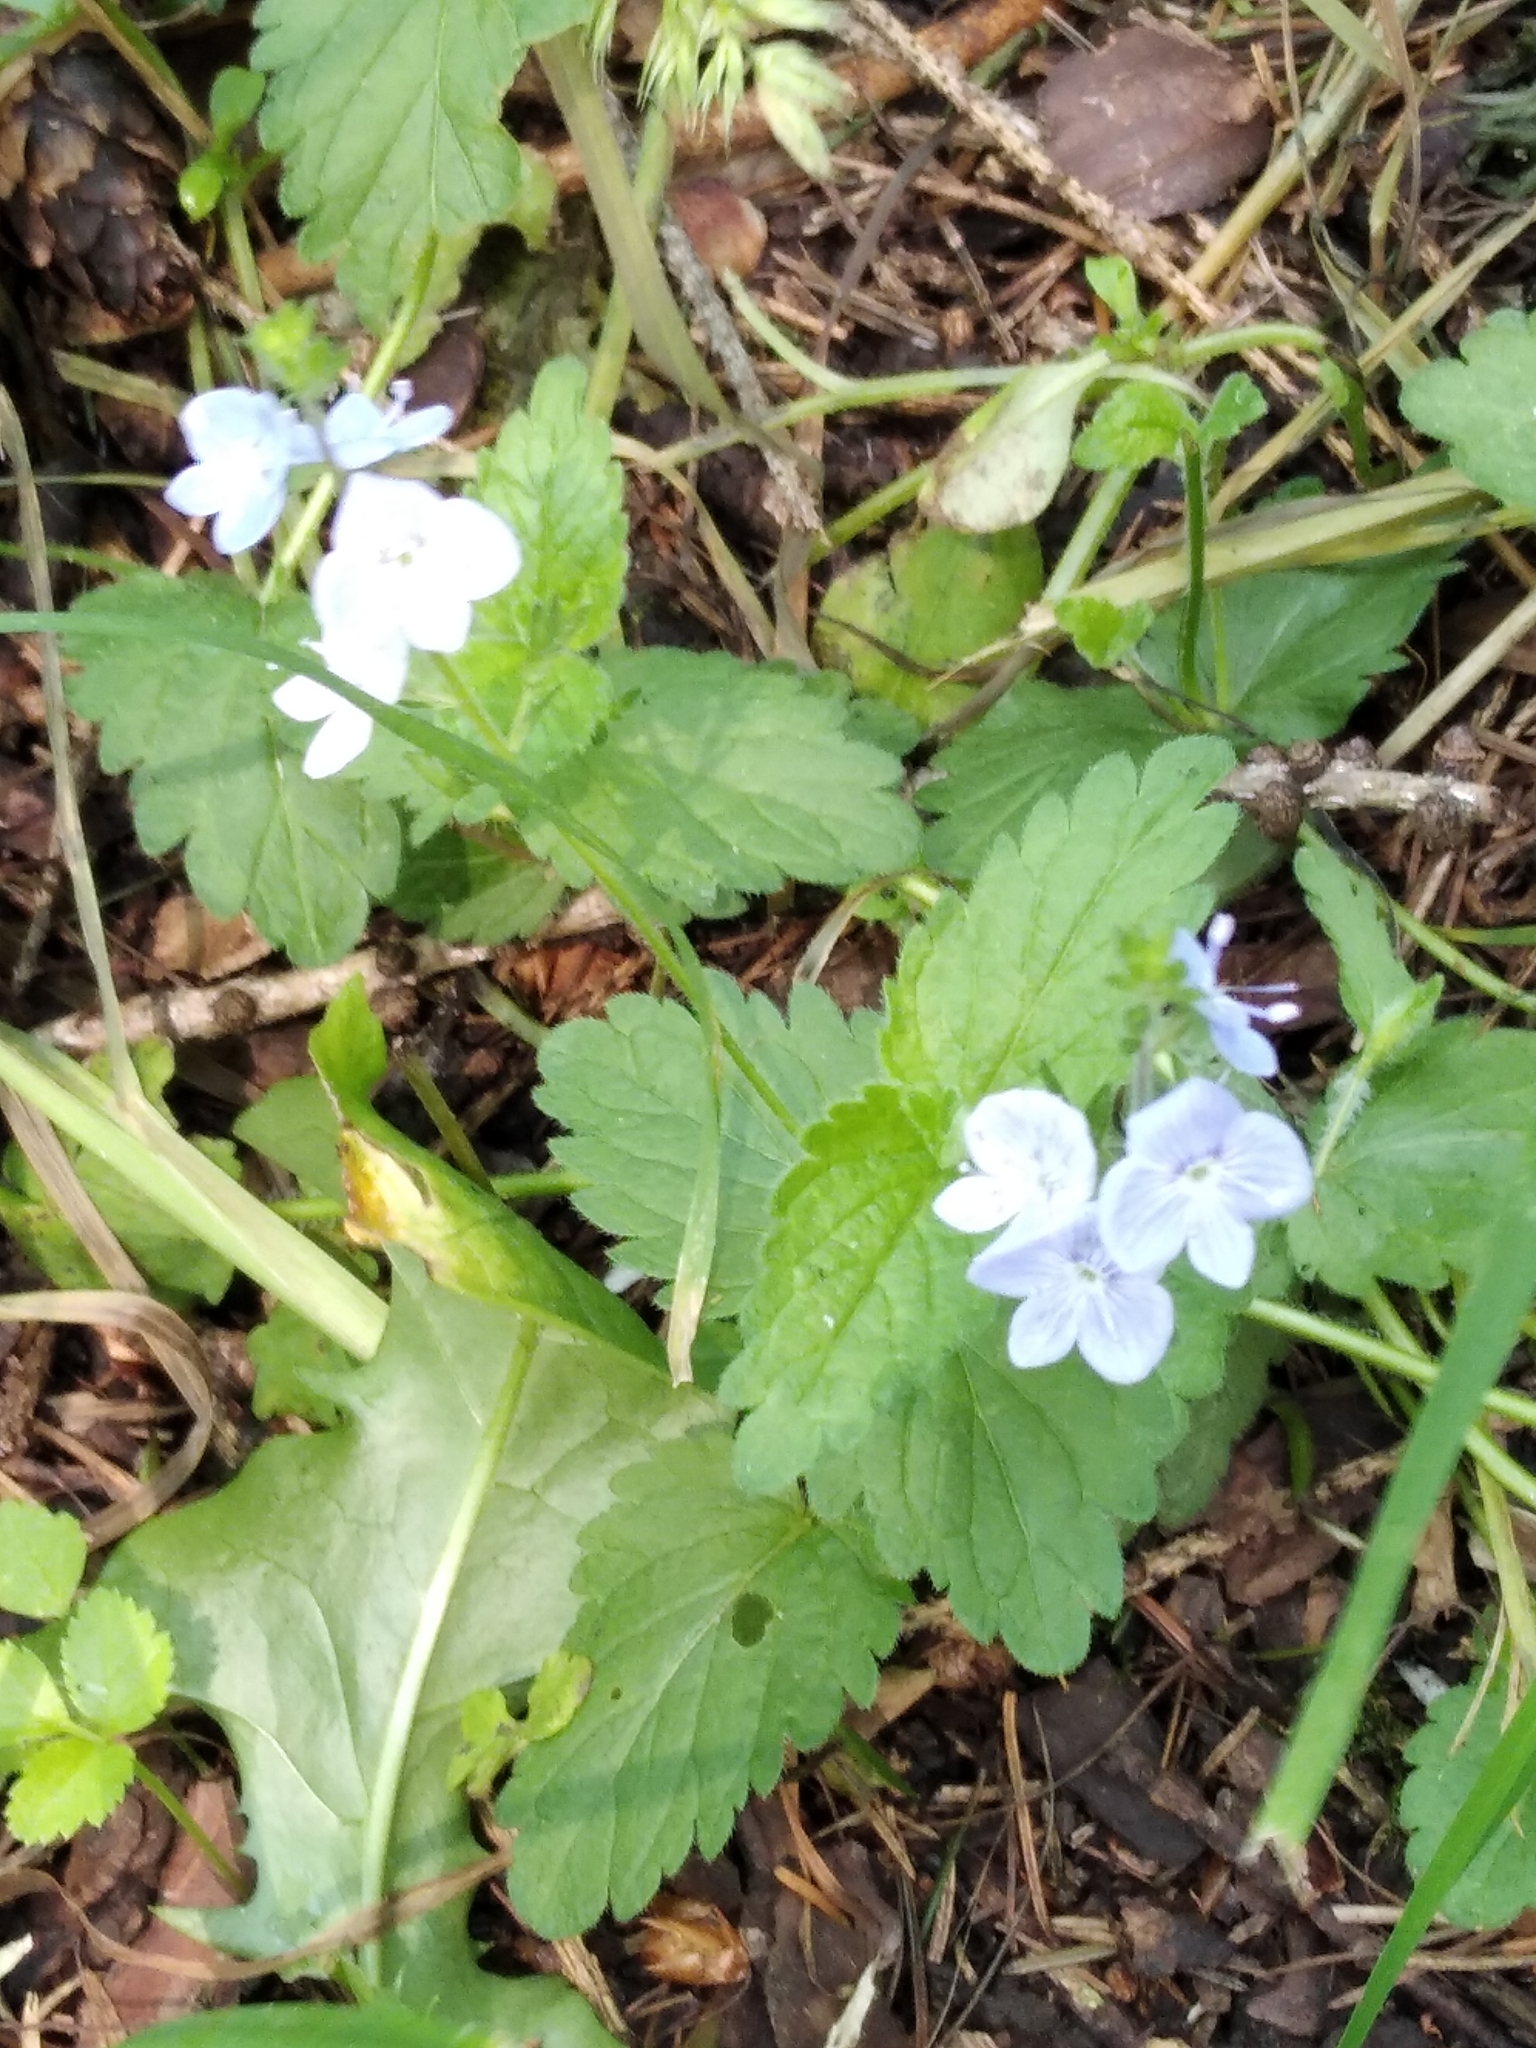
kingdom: Plantae
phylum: Tracheophyta
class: Magnoliopsida
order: Lamiales
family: Plantaginaceae
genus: Veronica
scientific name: Veronica chamaedrys
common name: Germander speedwell
